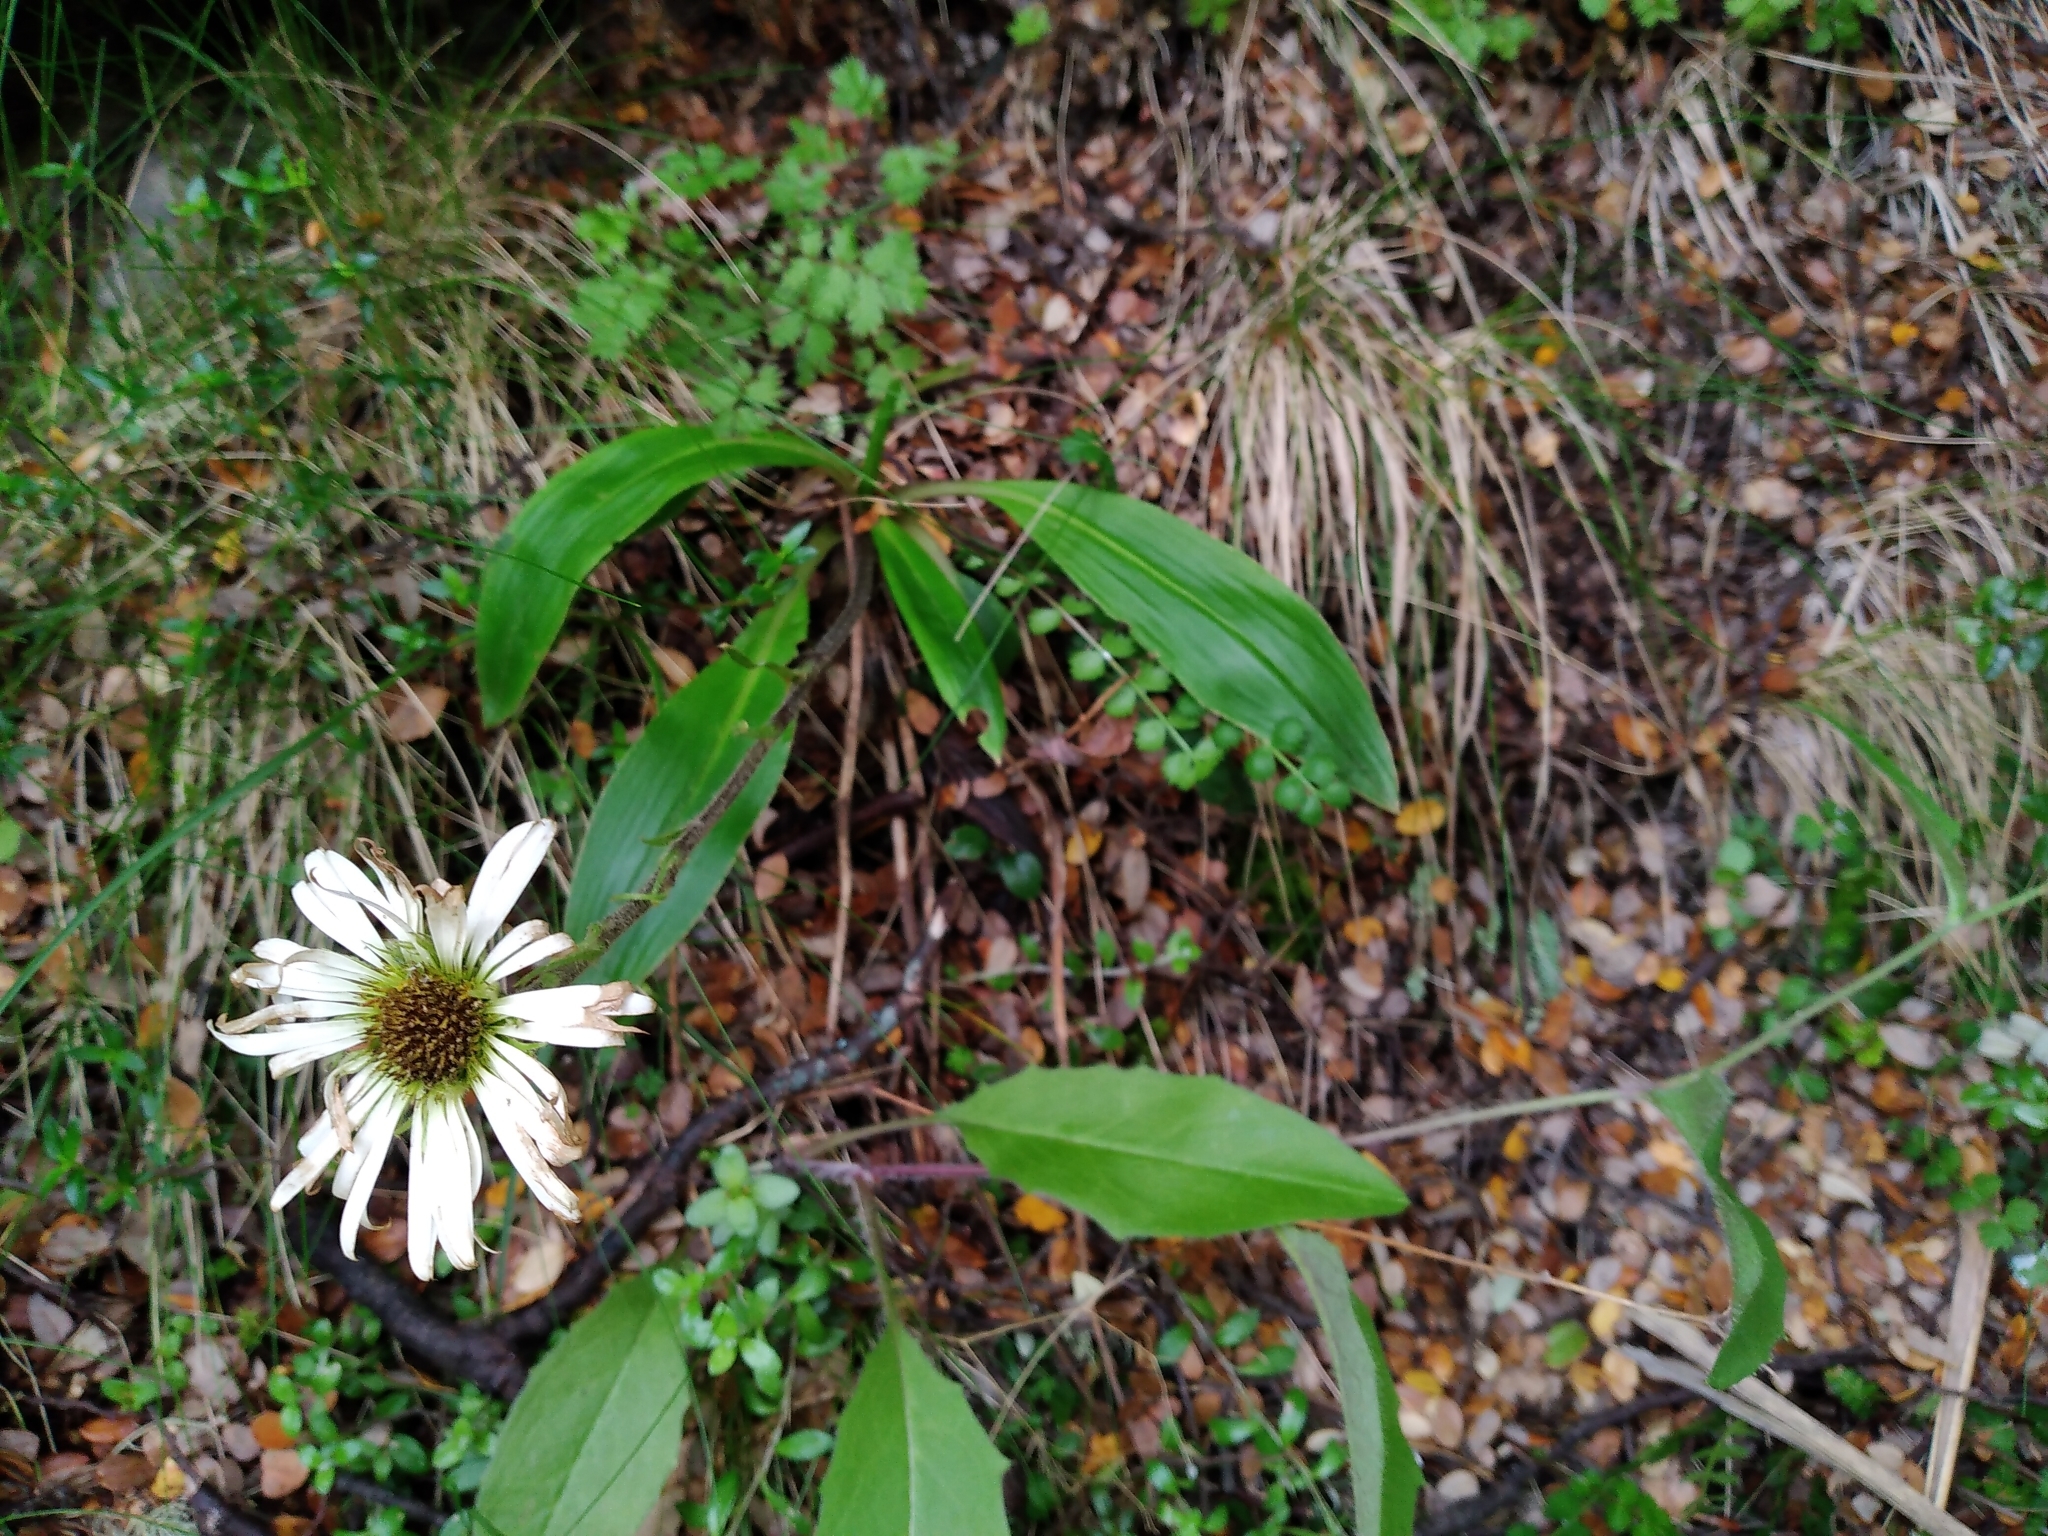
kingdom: Plantae
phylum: Tracheophyta
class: Magnoliopsida
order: Asterales
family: Asteraceae
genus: Celmisia
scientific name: Celmisia verbascifolia
